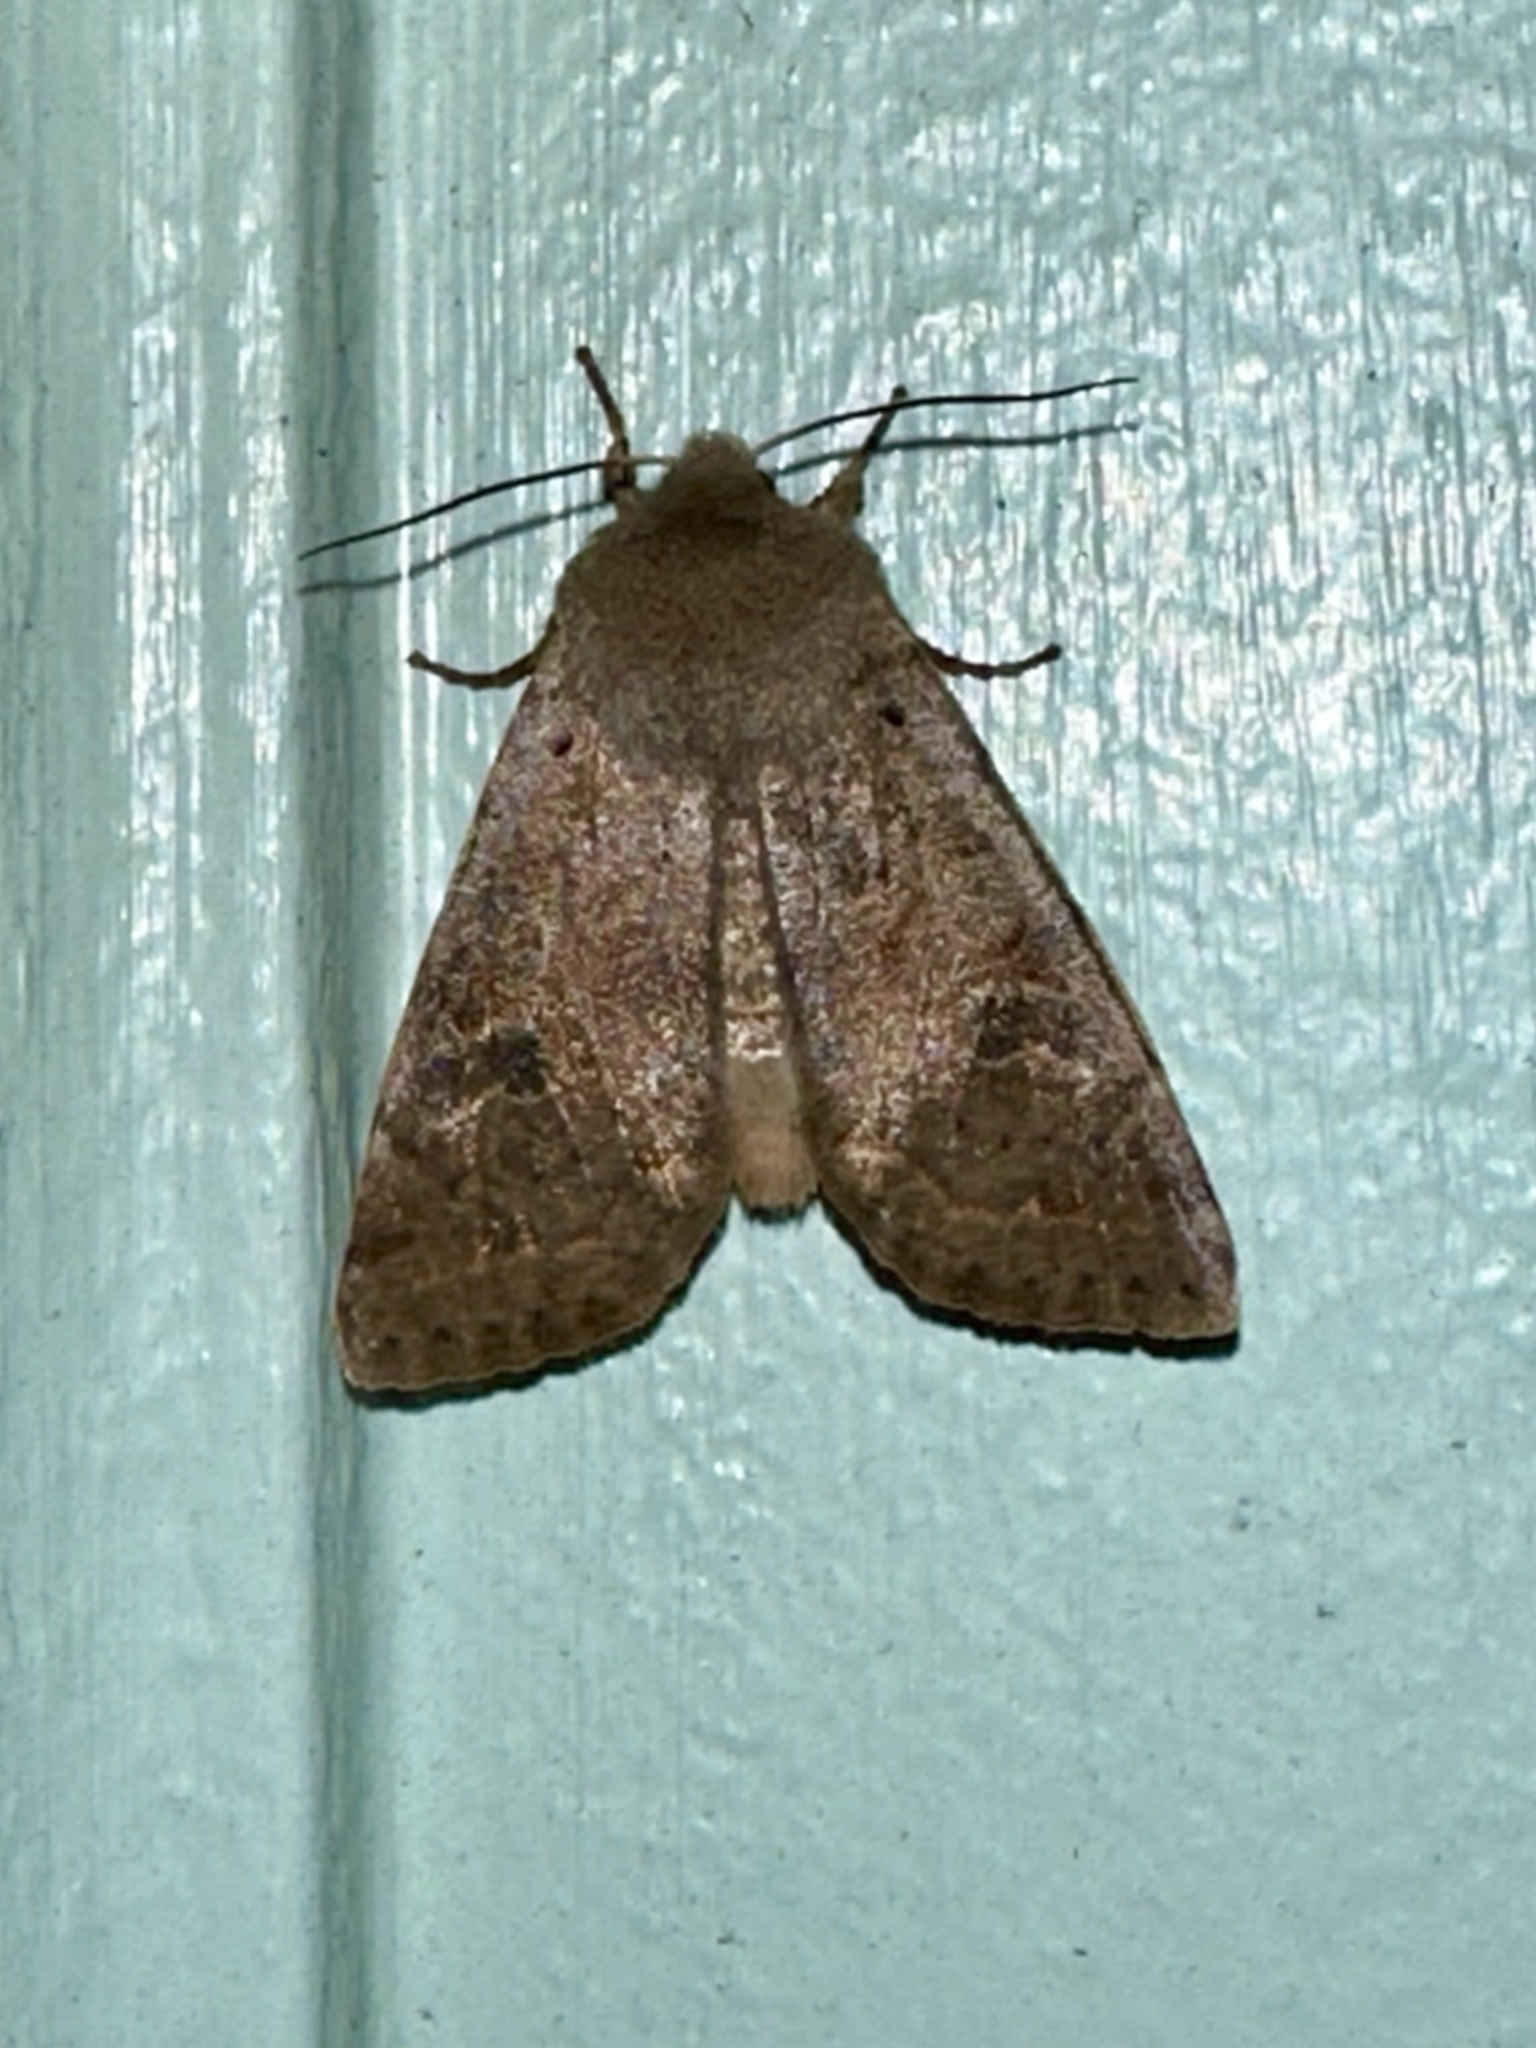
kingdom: Animalia
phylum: Arthropoda
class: Insecta
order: Lepidoptera
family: Noctuidae
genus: Orthosia
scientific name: Orthosia hibisci
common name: Green fruitworm
